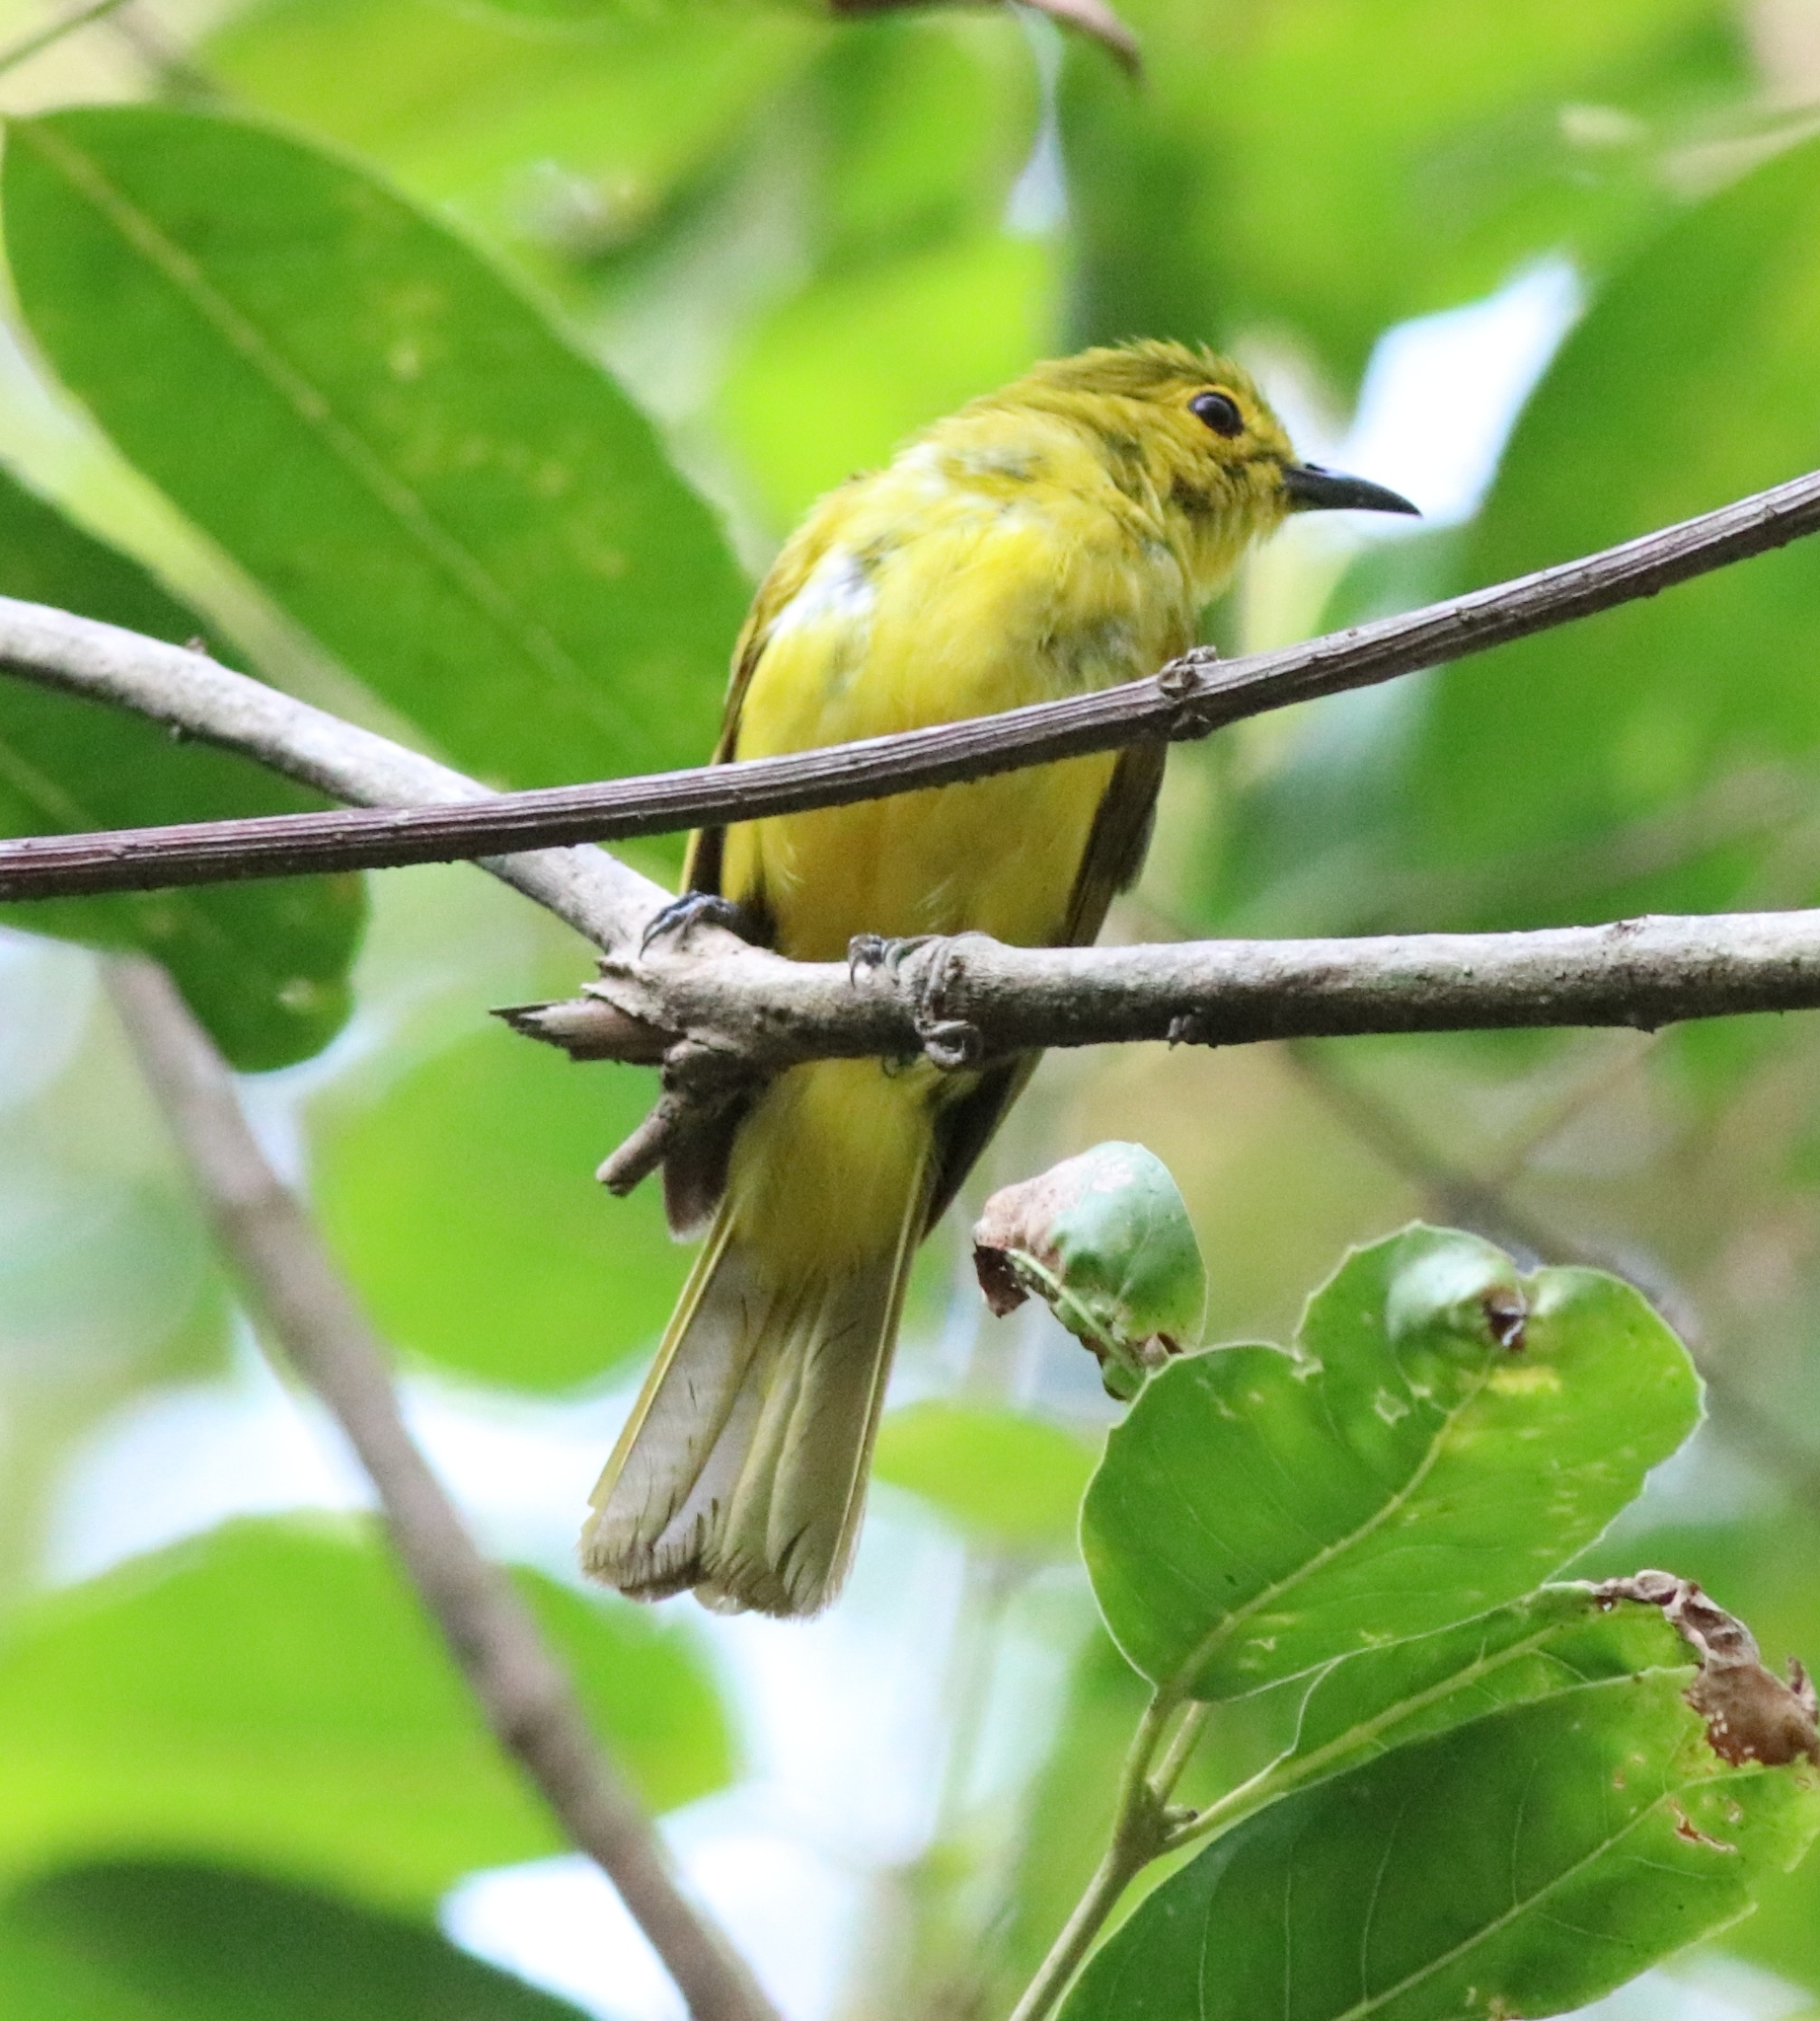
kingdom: Animalia
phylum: Chordata
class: Aves
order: Passeriformes
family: Pycnonotidae
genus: Acritillas
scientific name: Acritillas indica
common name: Yellow-browed bulbul
